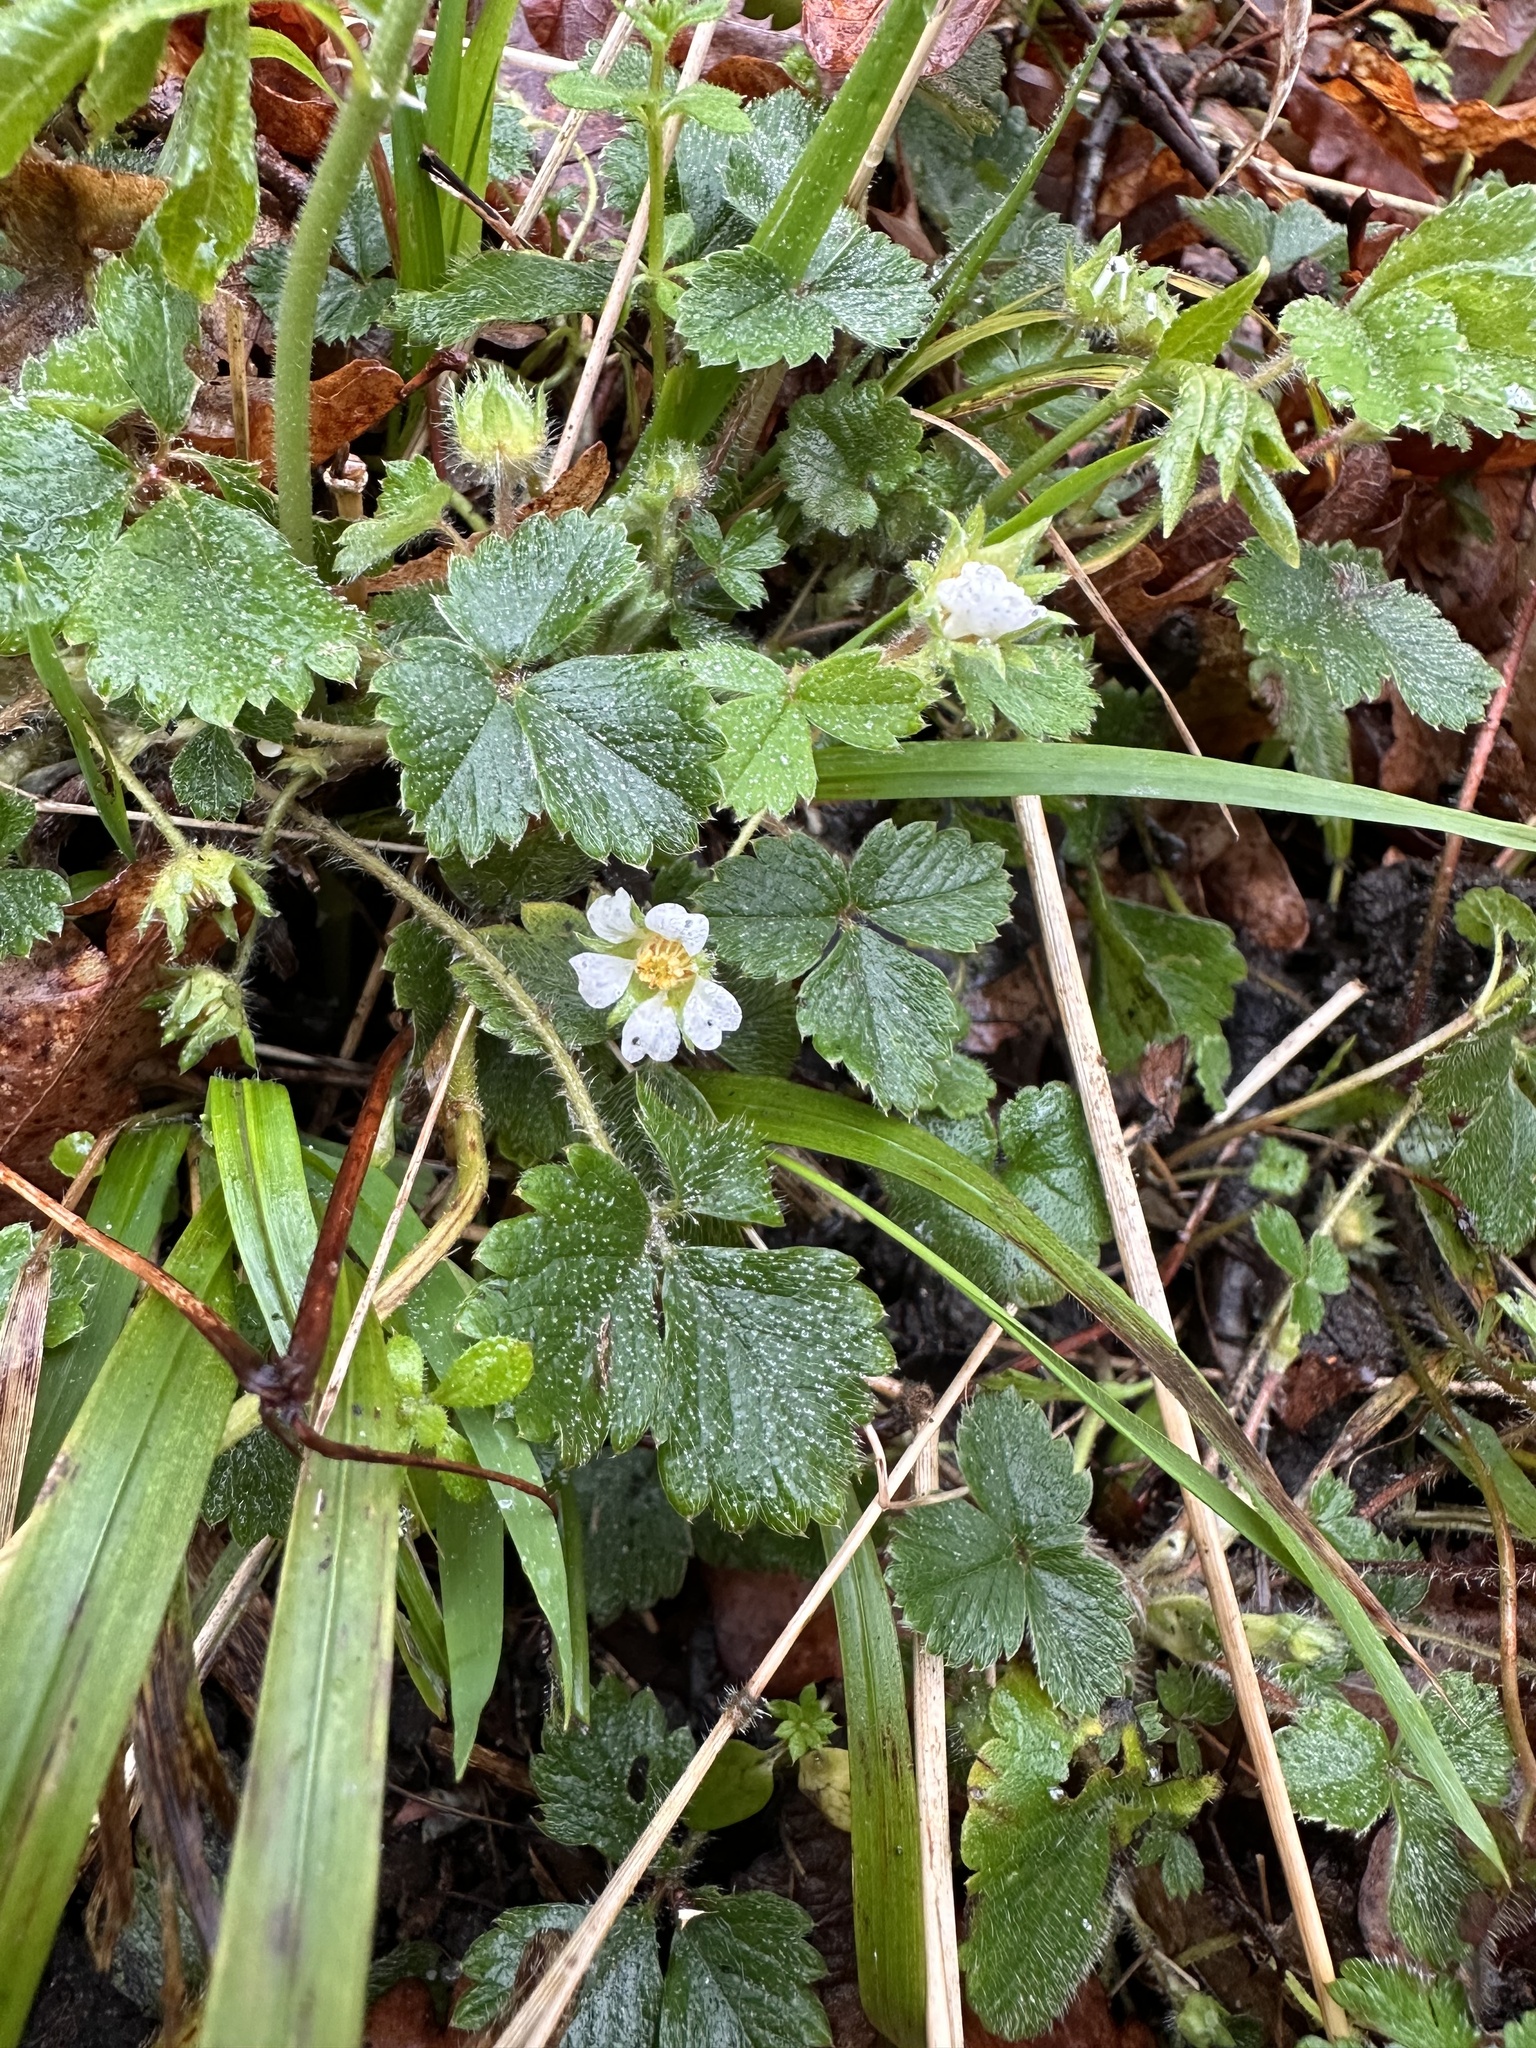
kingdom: Plantae
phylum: Tracheophyta
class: Magnoliopsida
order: Rosales
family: Rosaceae
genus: Potentilla
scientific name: Potentilla sterilis
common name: Barren strawberry
